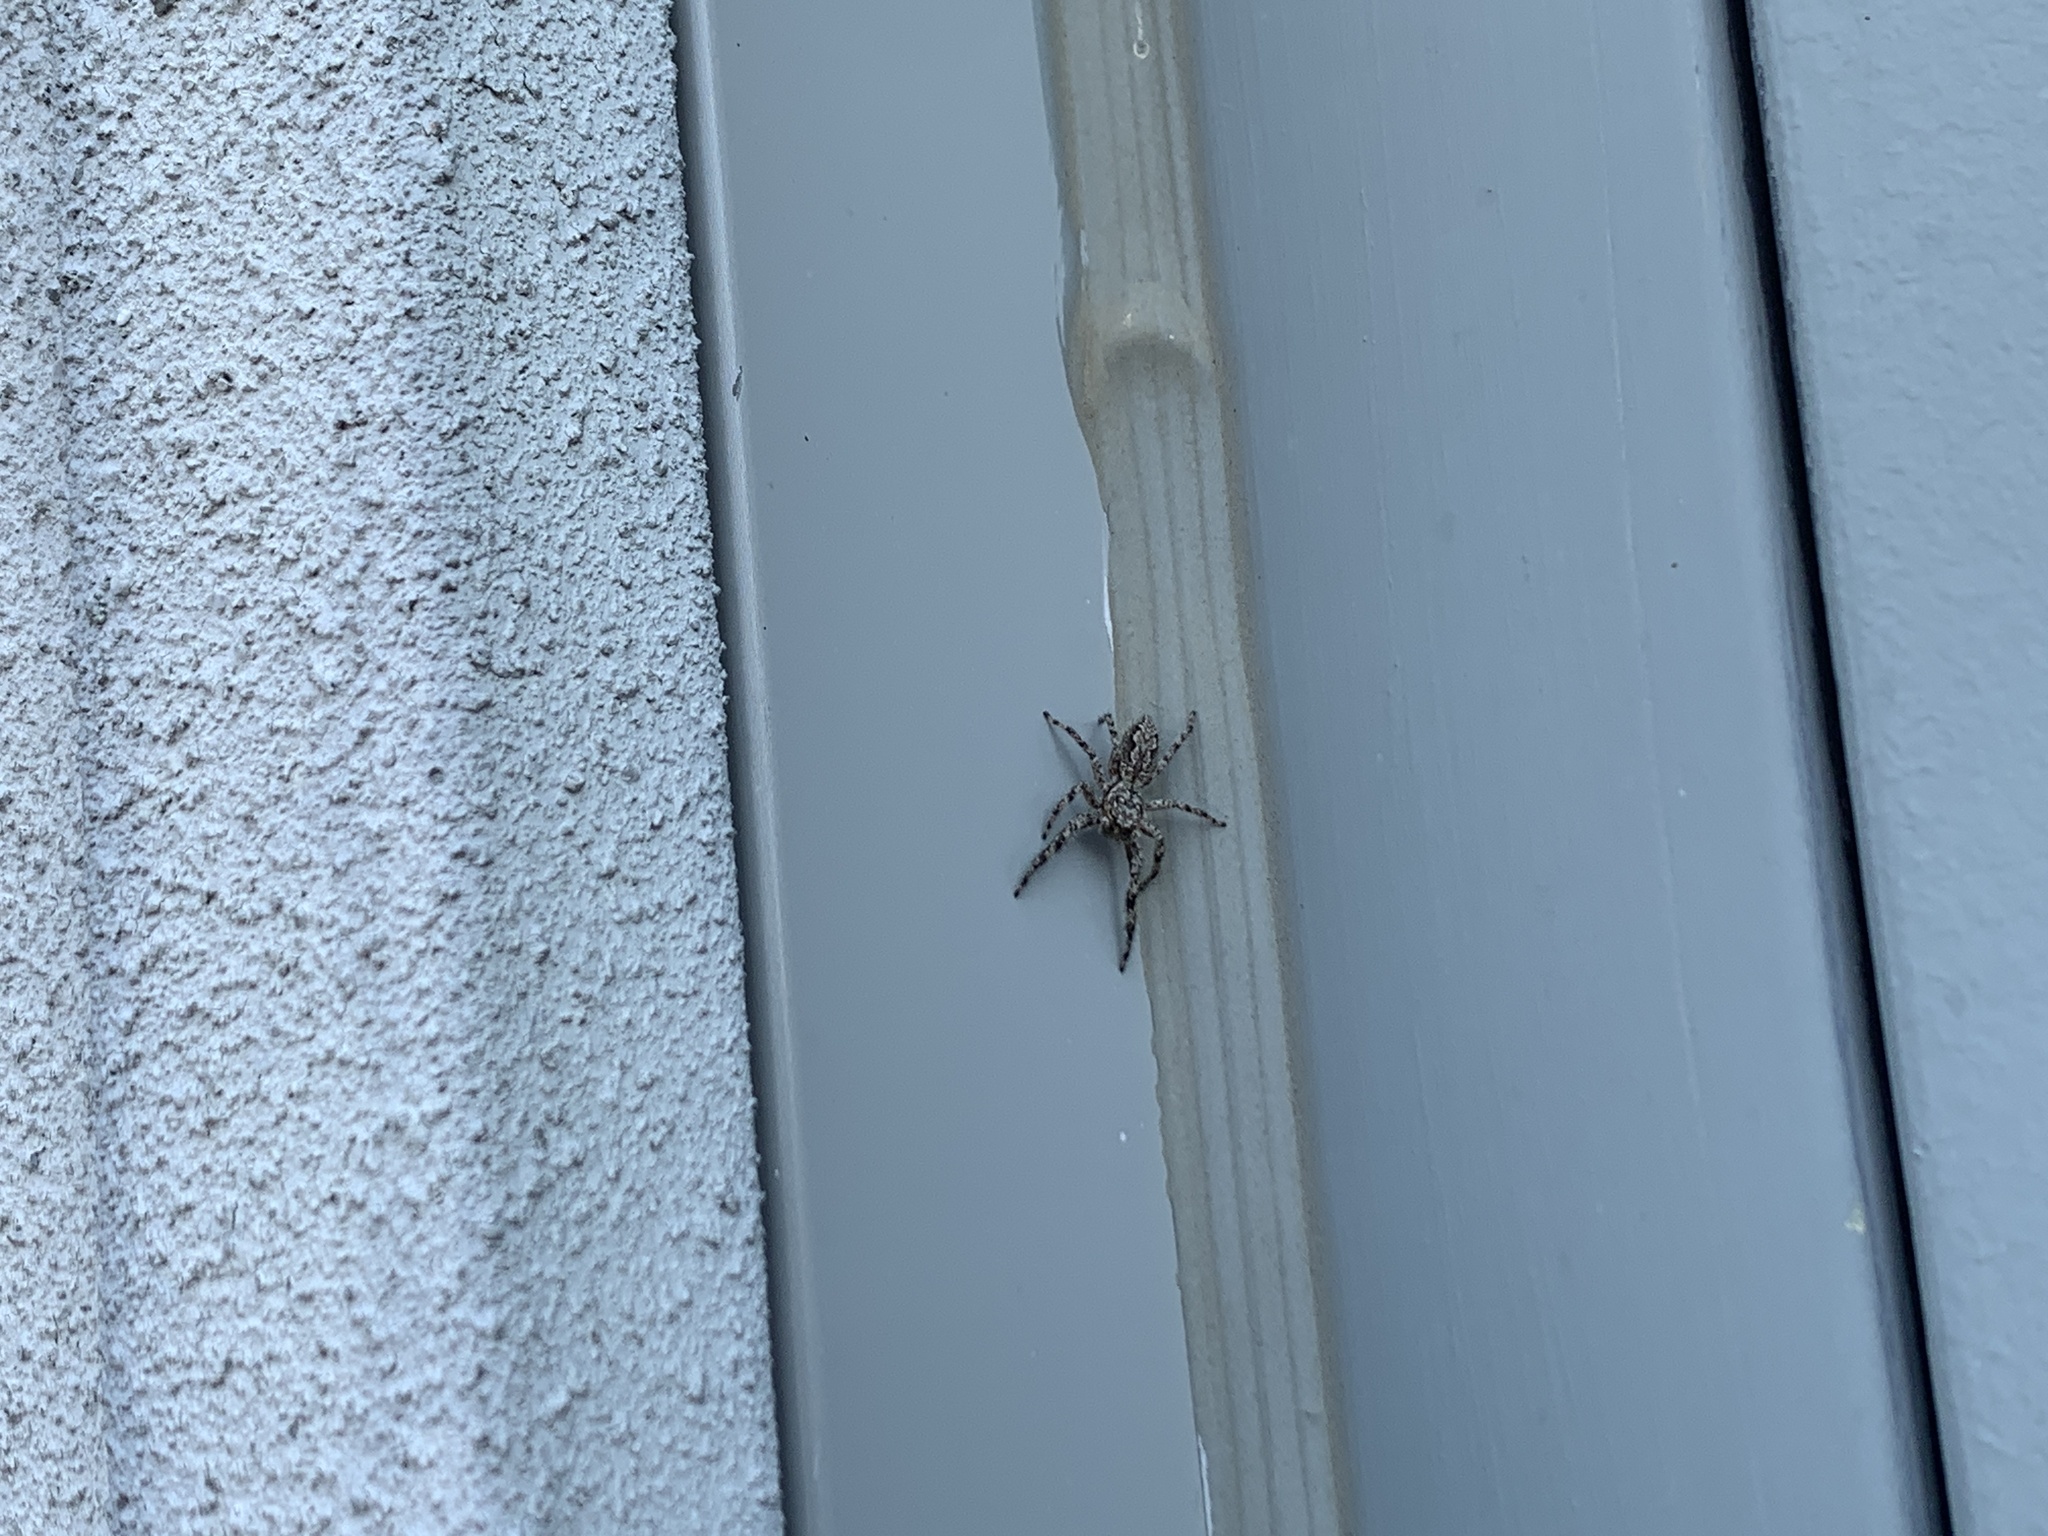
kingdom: Animalia
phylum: Arthropoda
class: Arachnida
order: Araneae
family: Salticidae
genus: Platycryptus
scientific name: Platycryptus undatus
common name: Tan jumping spider
